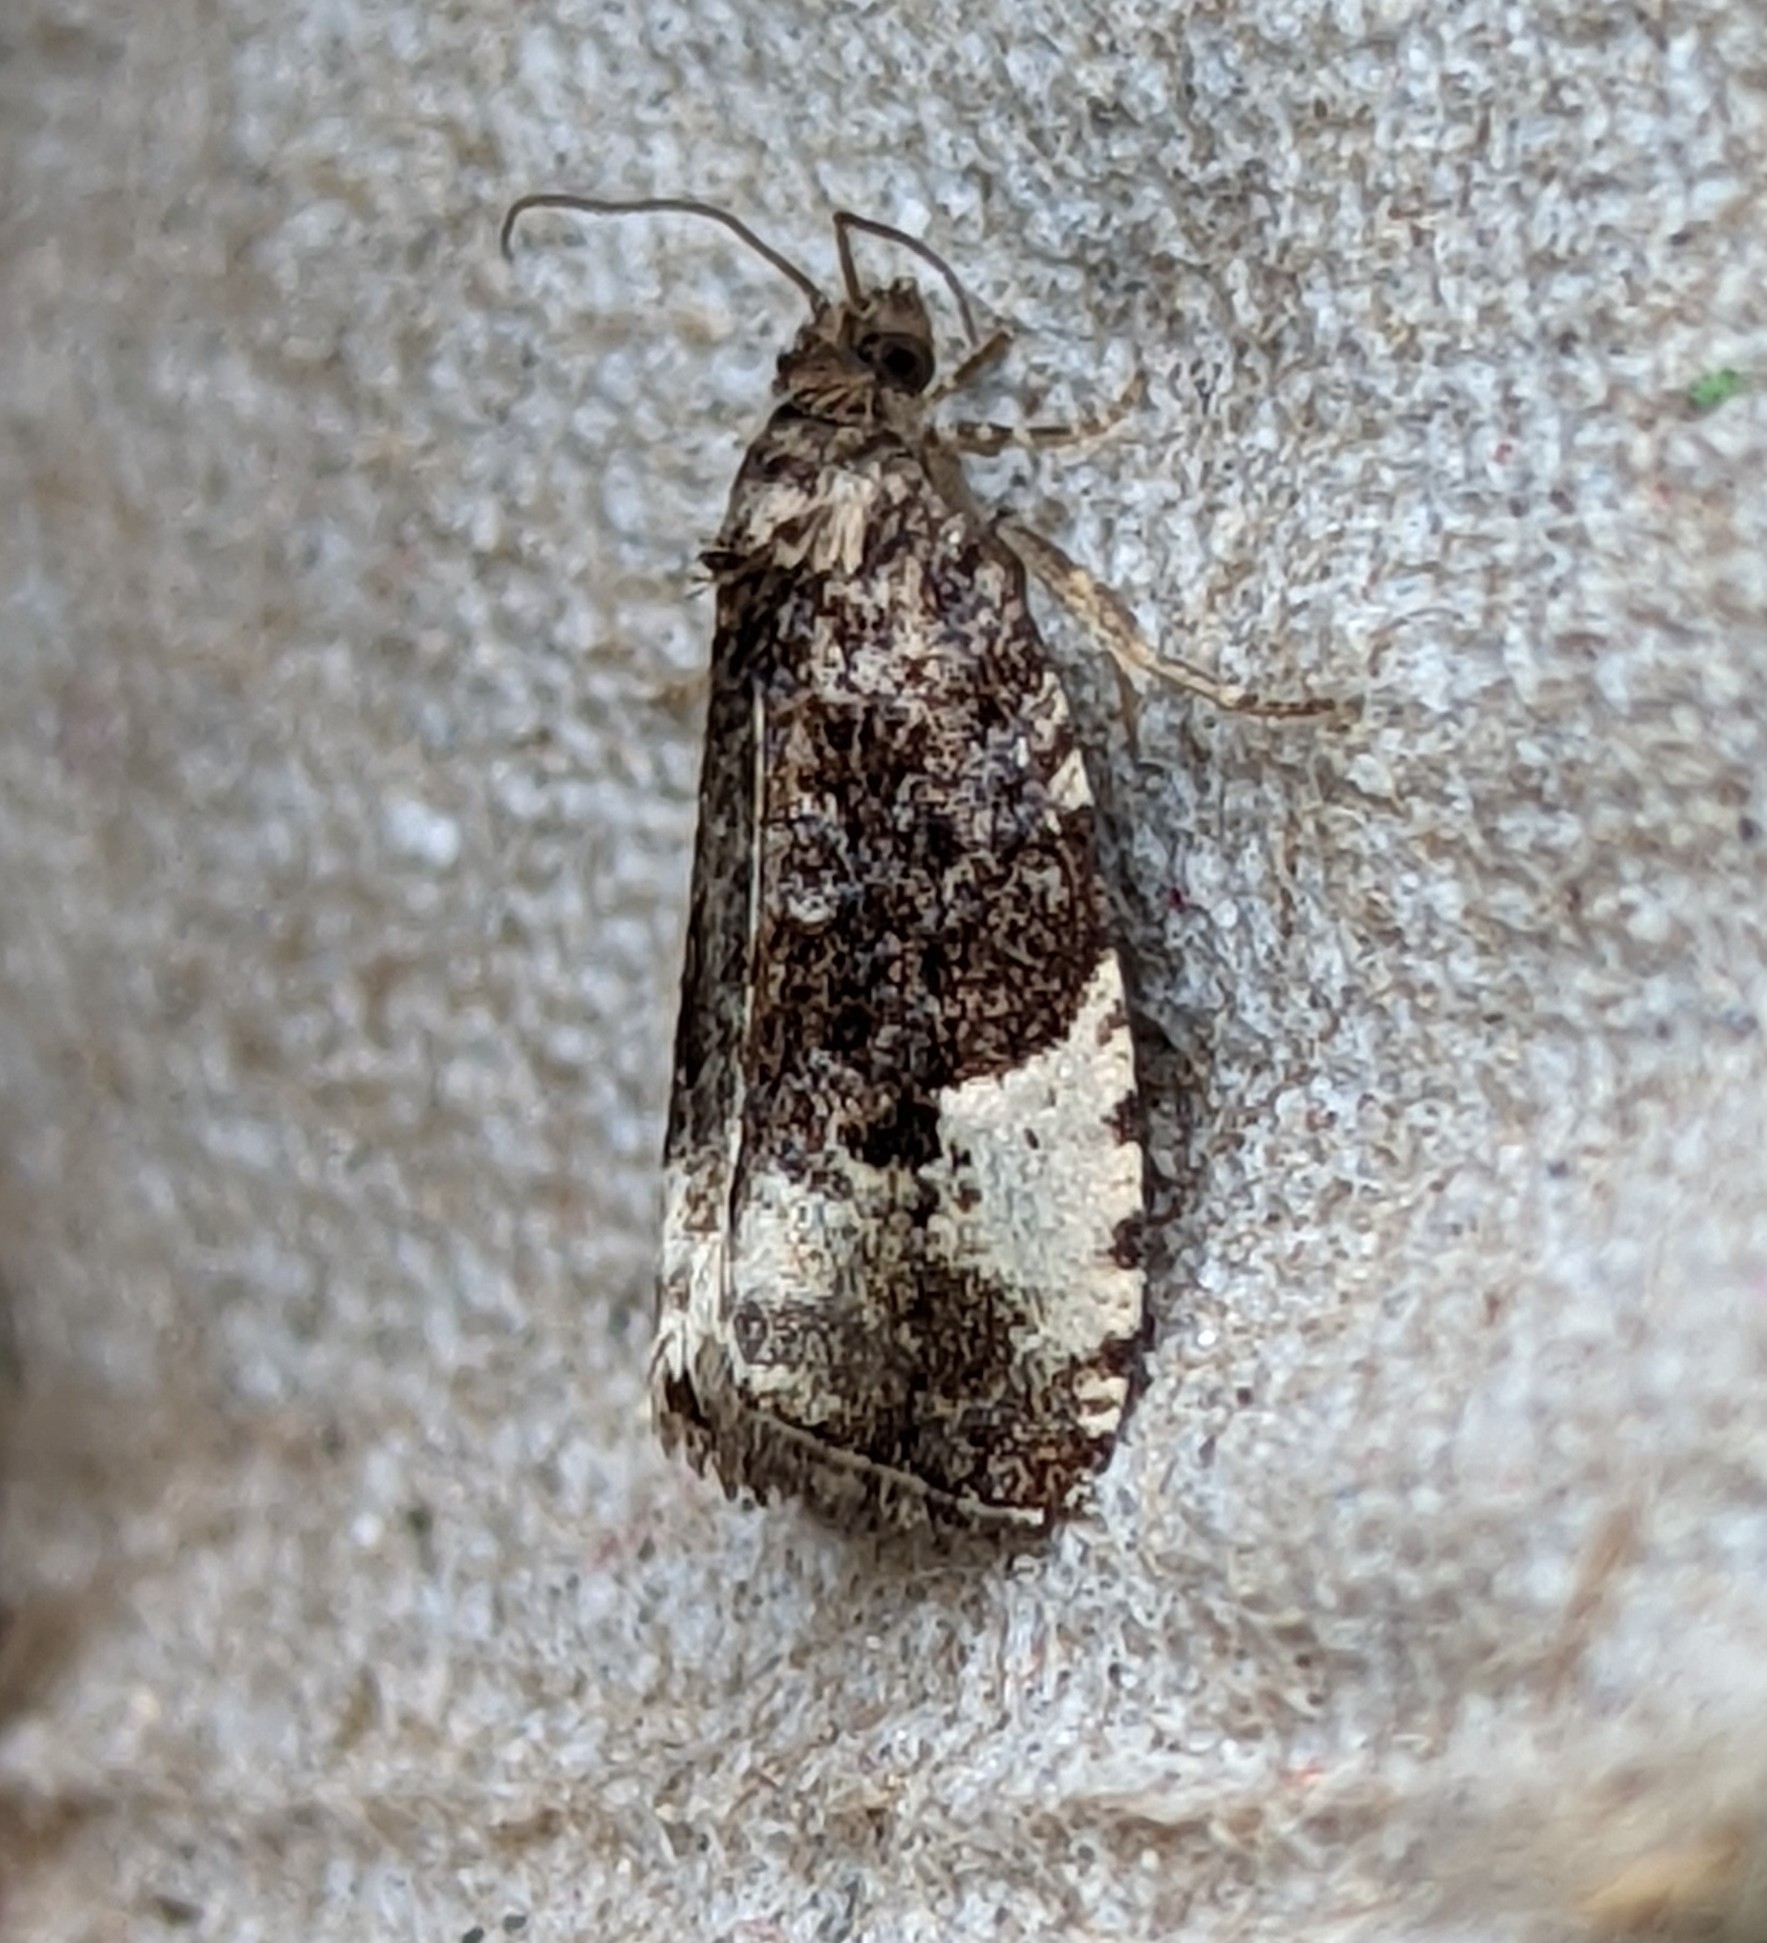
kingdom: Animalia
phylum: Arthropoda
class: Insecta
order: Lepidoptera
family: Tortricidae
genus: Hedya
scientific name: Hedya pruniana
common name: Plum tortrix
